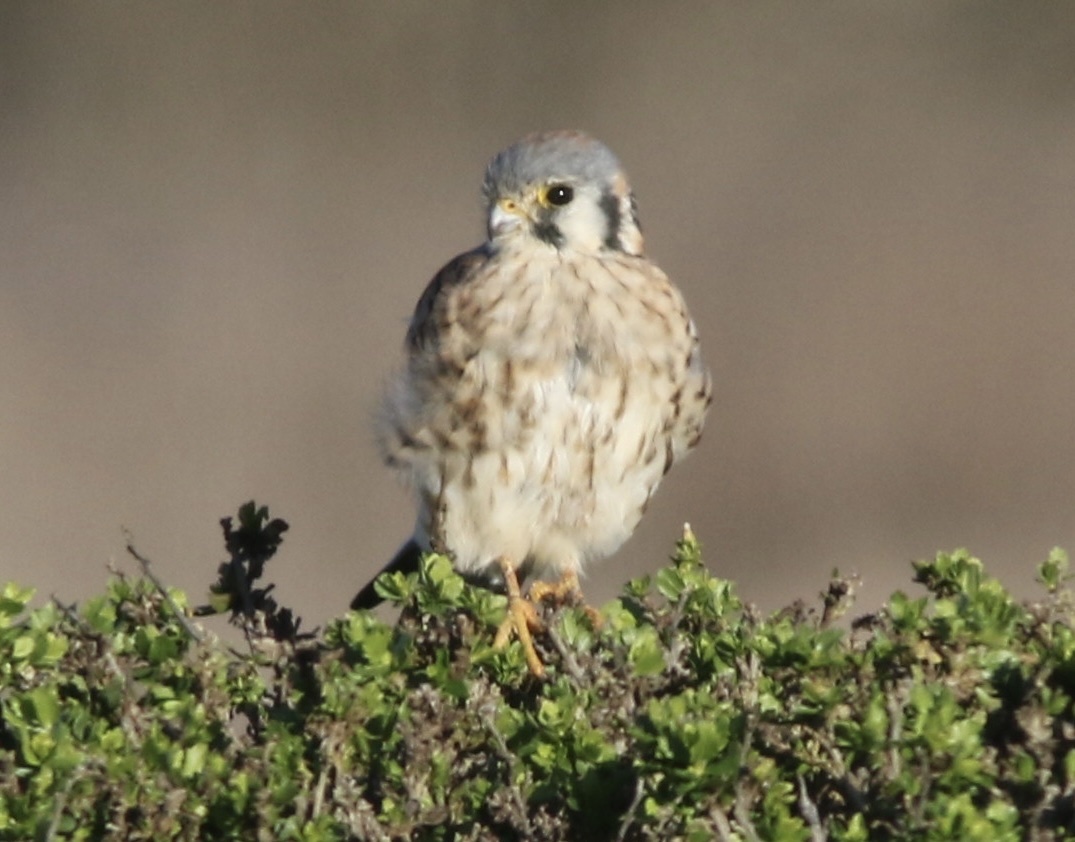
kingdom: Animalia
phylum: Chordata
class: Aves
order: Falconiformes
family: Falconidae
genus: Falco
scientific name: Falco sparverius
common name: American kestrel
